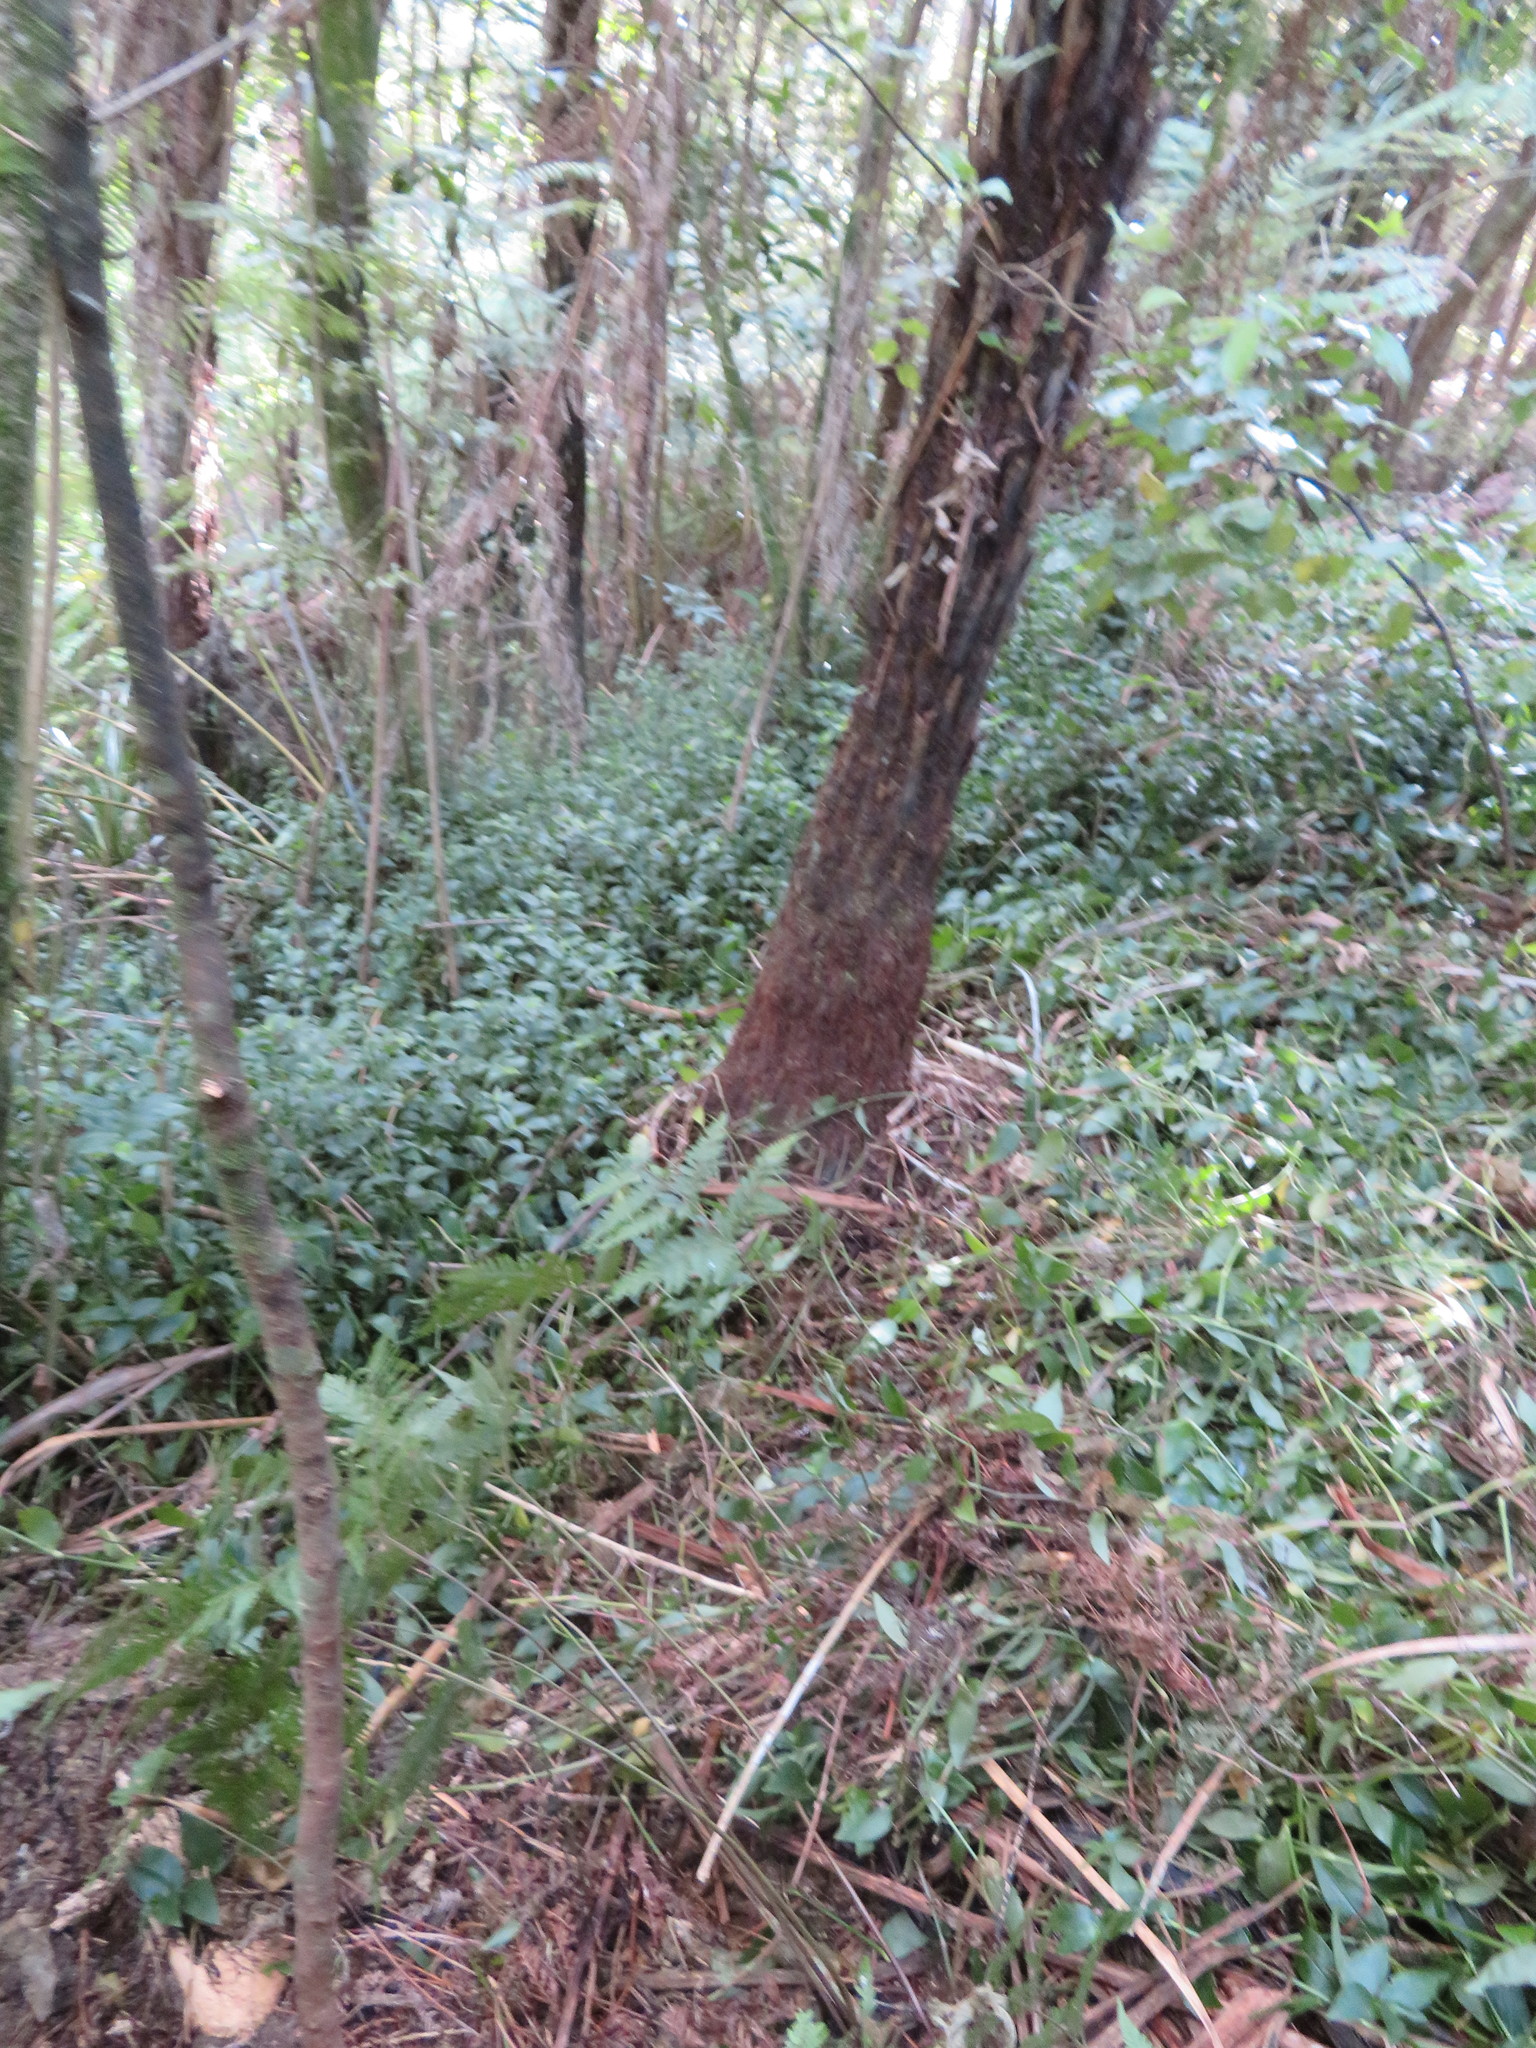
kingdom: Plantae
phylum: Tracheophyta
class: Liliopsida
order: Commelinales
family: Commelinaceae
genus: Tradescantia
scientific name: Tradescantia fluminensis
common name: Wandering-jew
